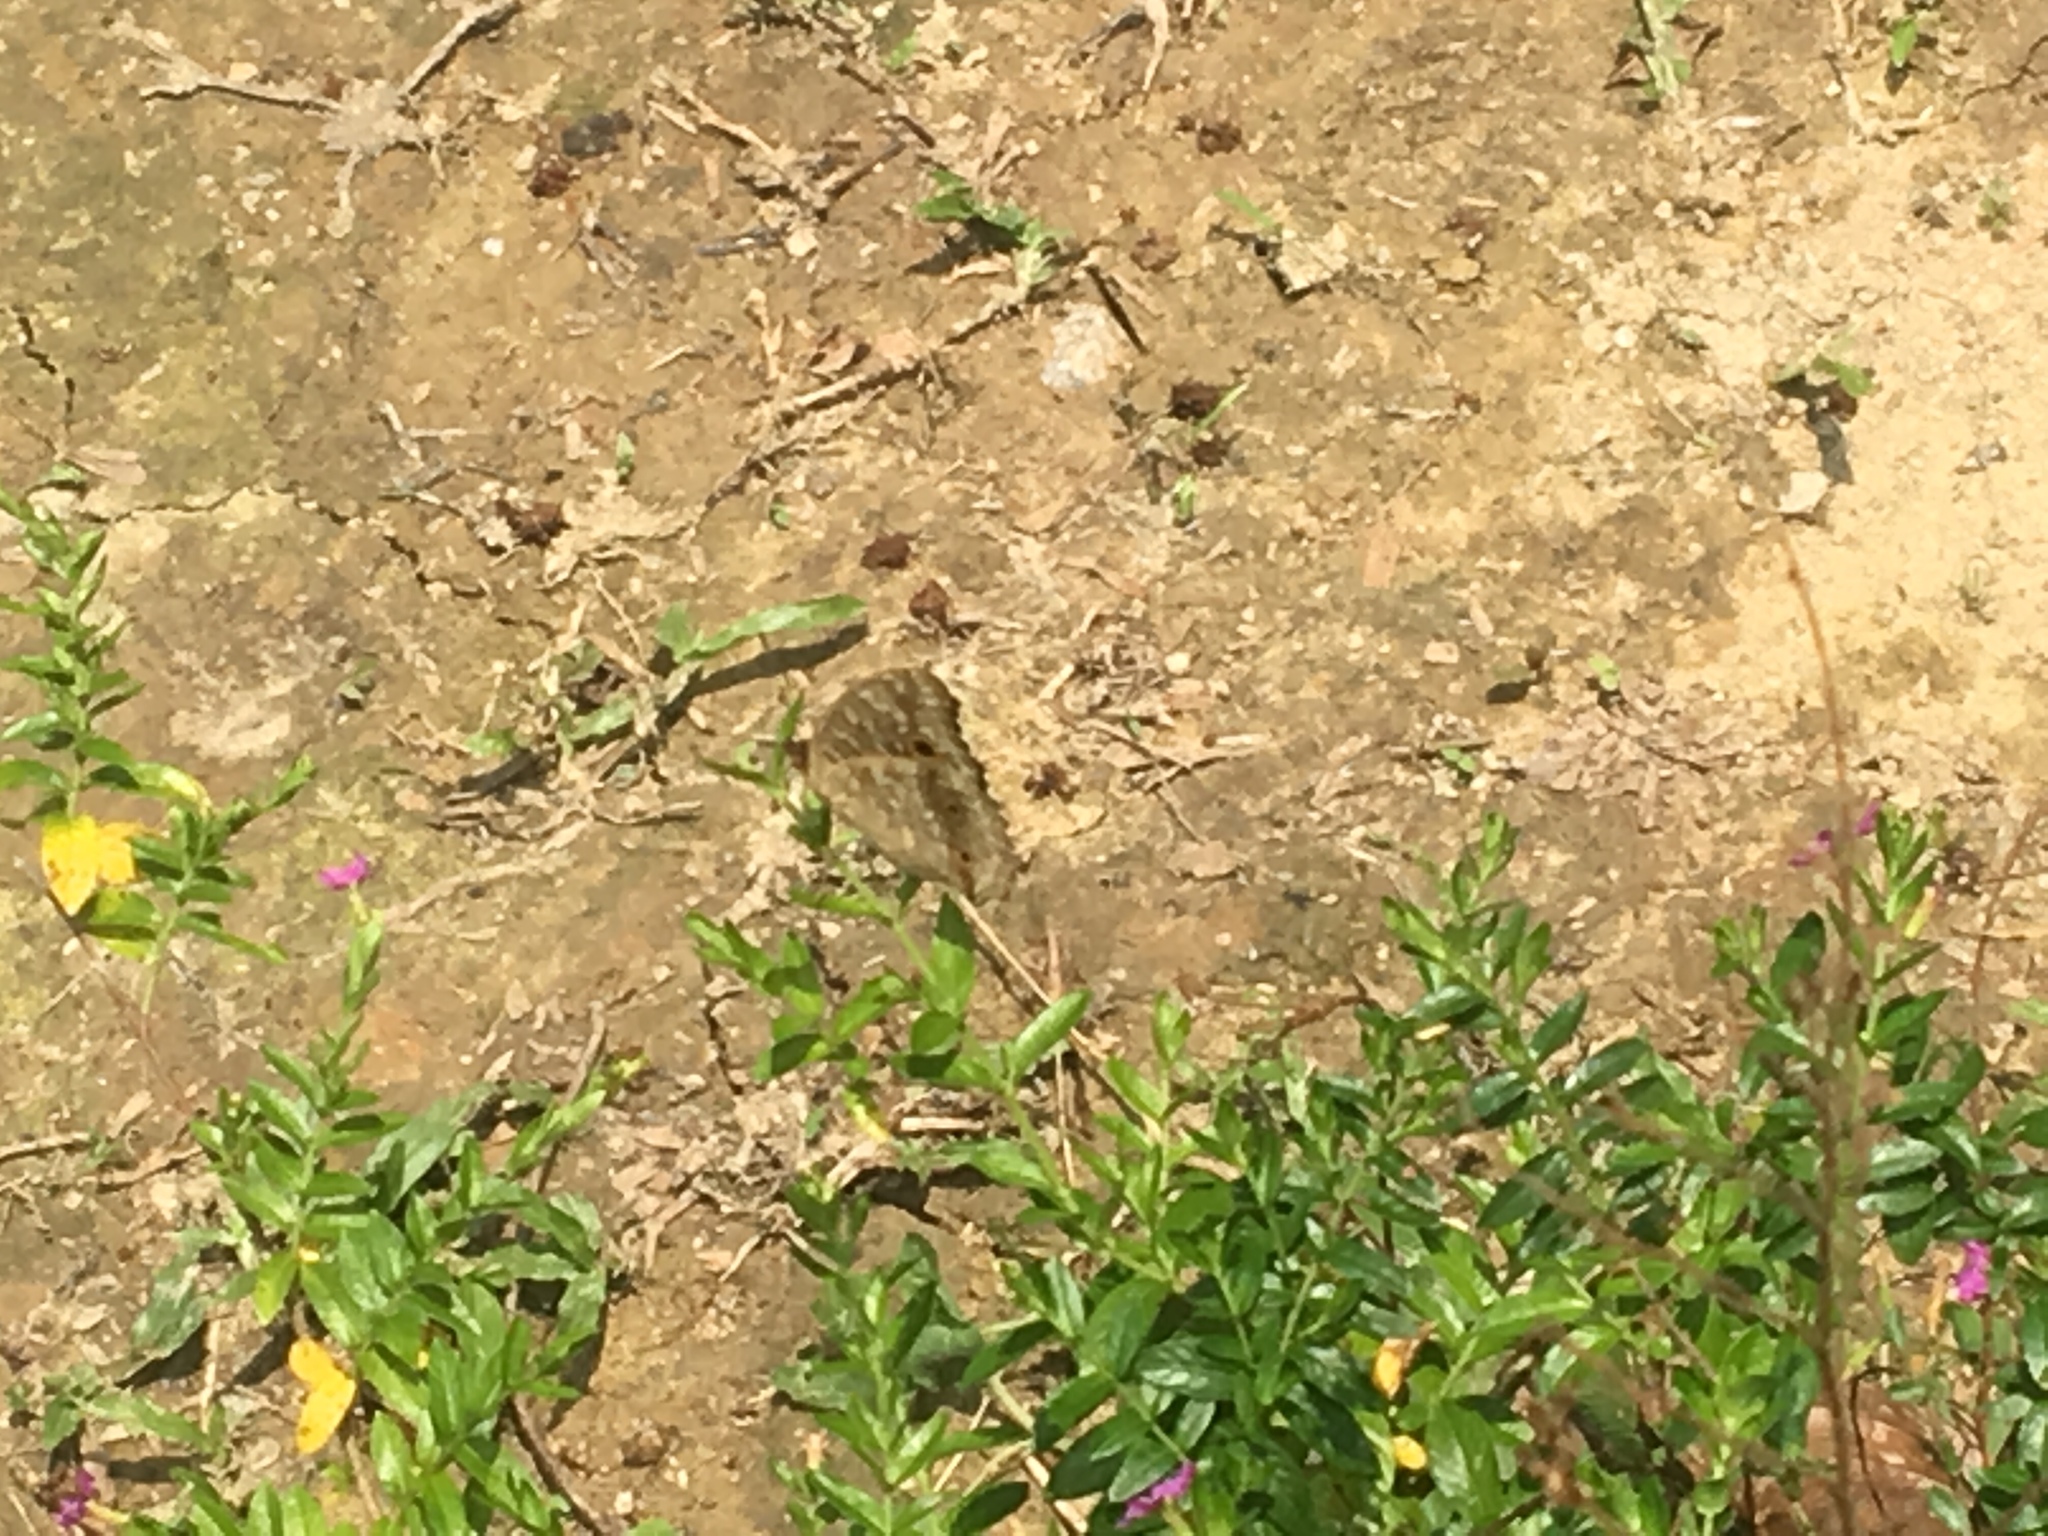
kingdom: Animalia
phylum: Arthropoda
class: Insecta
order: Lepidoptera
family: Nymphalidae
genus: Junonia
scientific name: Junonia lemonias
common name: Lemon pansy
